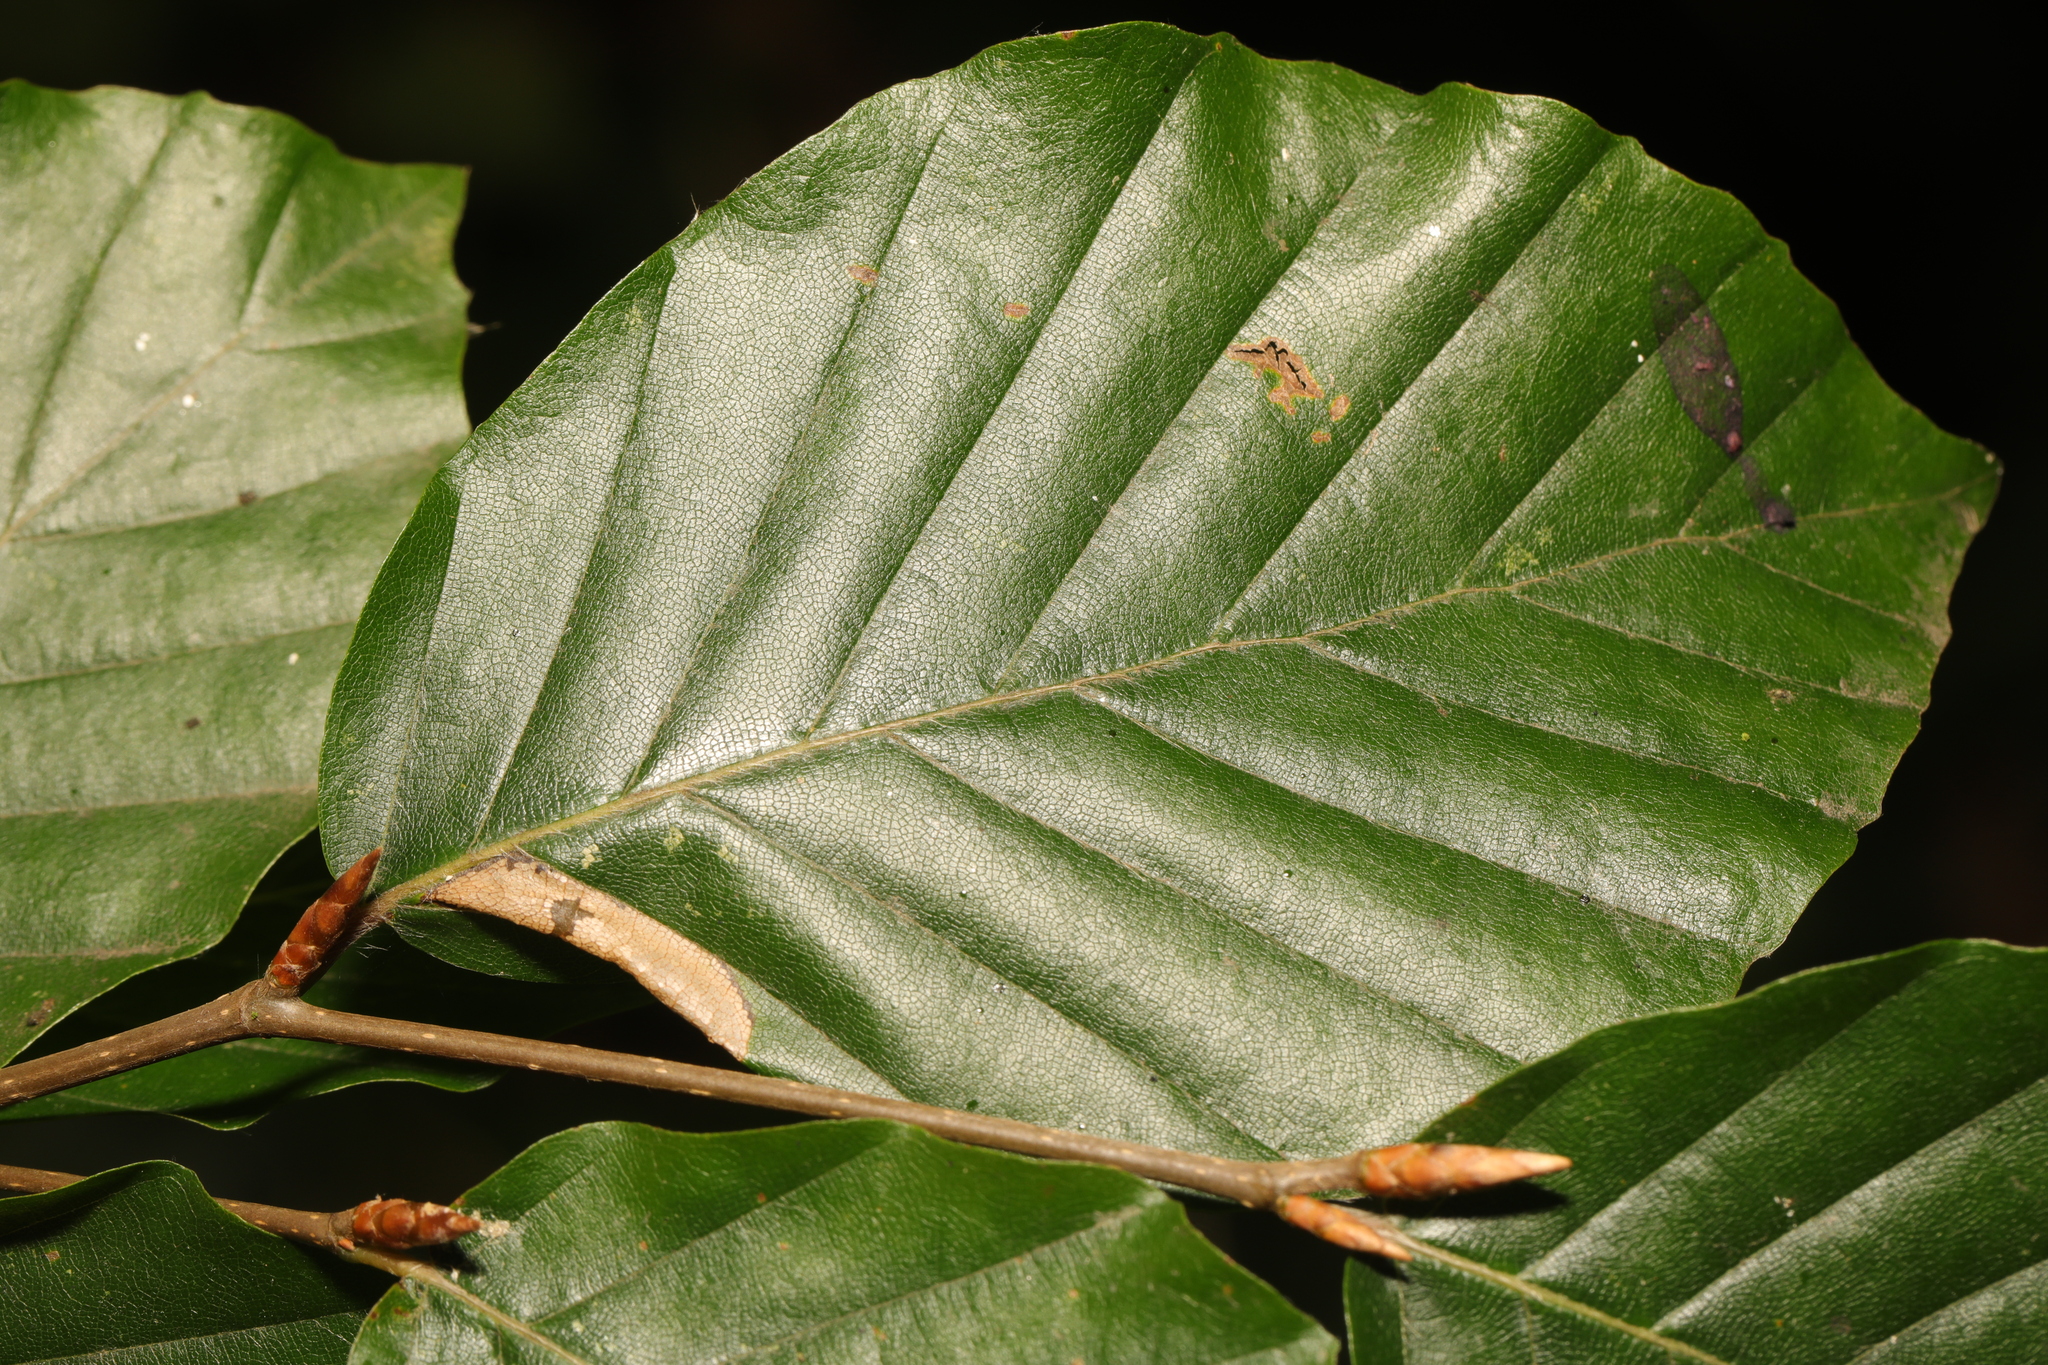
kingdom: Plantae
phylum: Tracheophyta
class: Magnoliopsida
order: Fagales
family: Fagaceae
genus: Fagus
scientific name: Fagus sylvatica
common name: Beech
